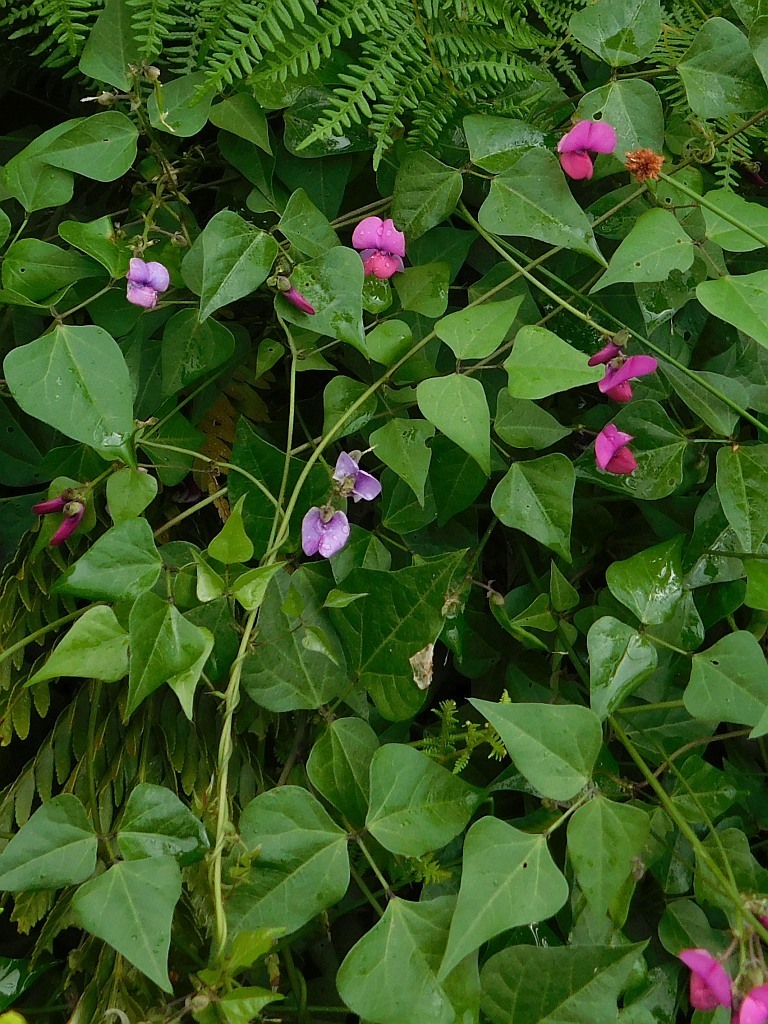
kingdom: Plantae
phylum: Tracheophyta
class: Magnoliopsida
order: Fabales
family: Fabaceae
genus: Dipogon
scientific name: Dipogon lignosus
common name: Okie bean
